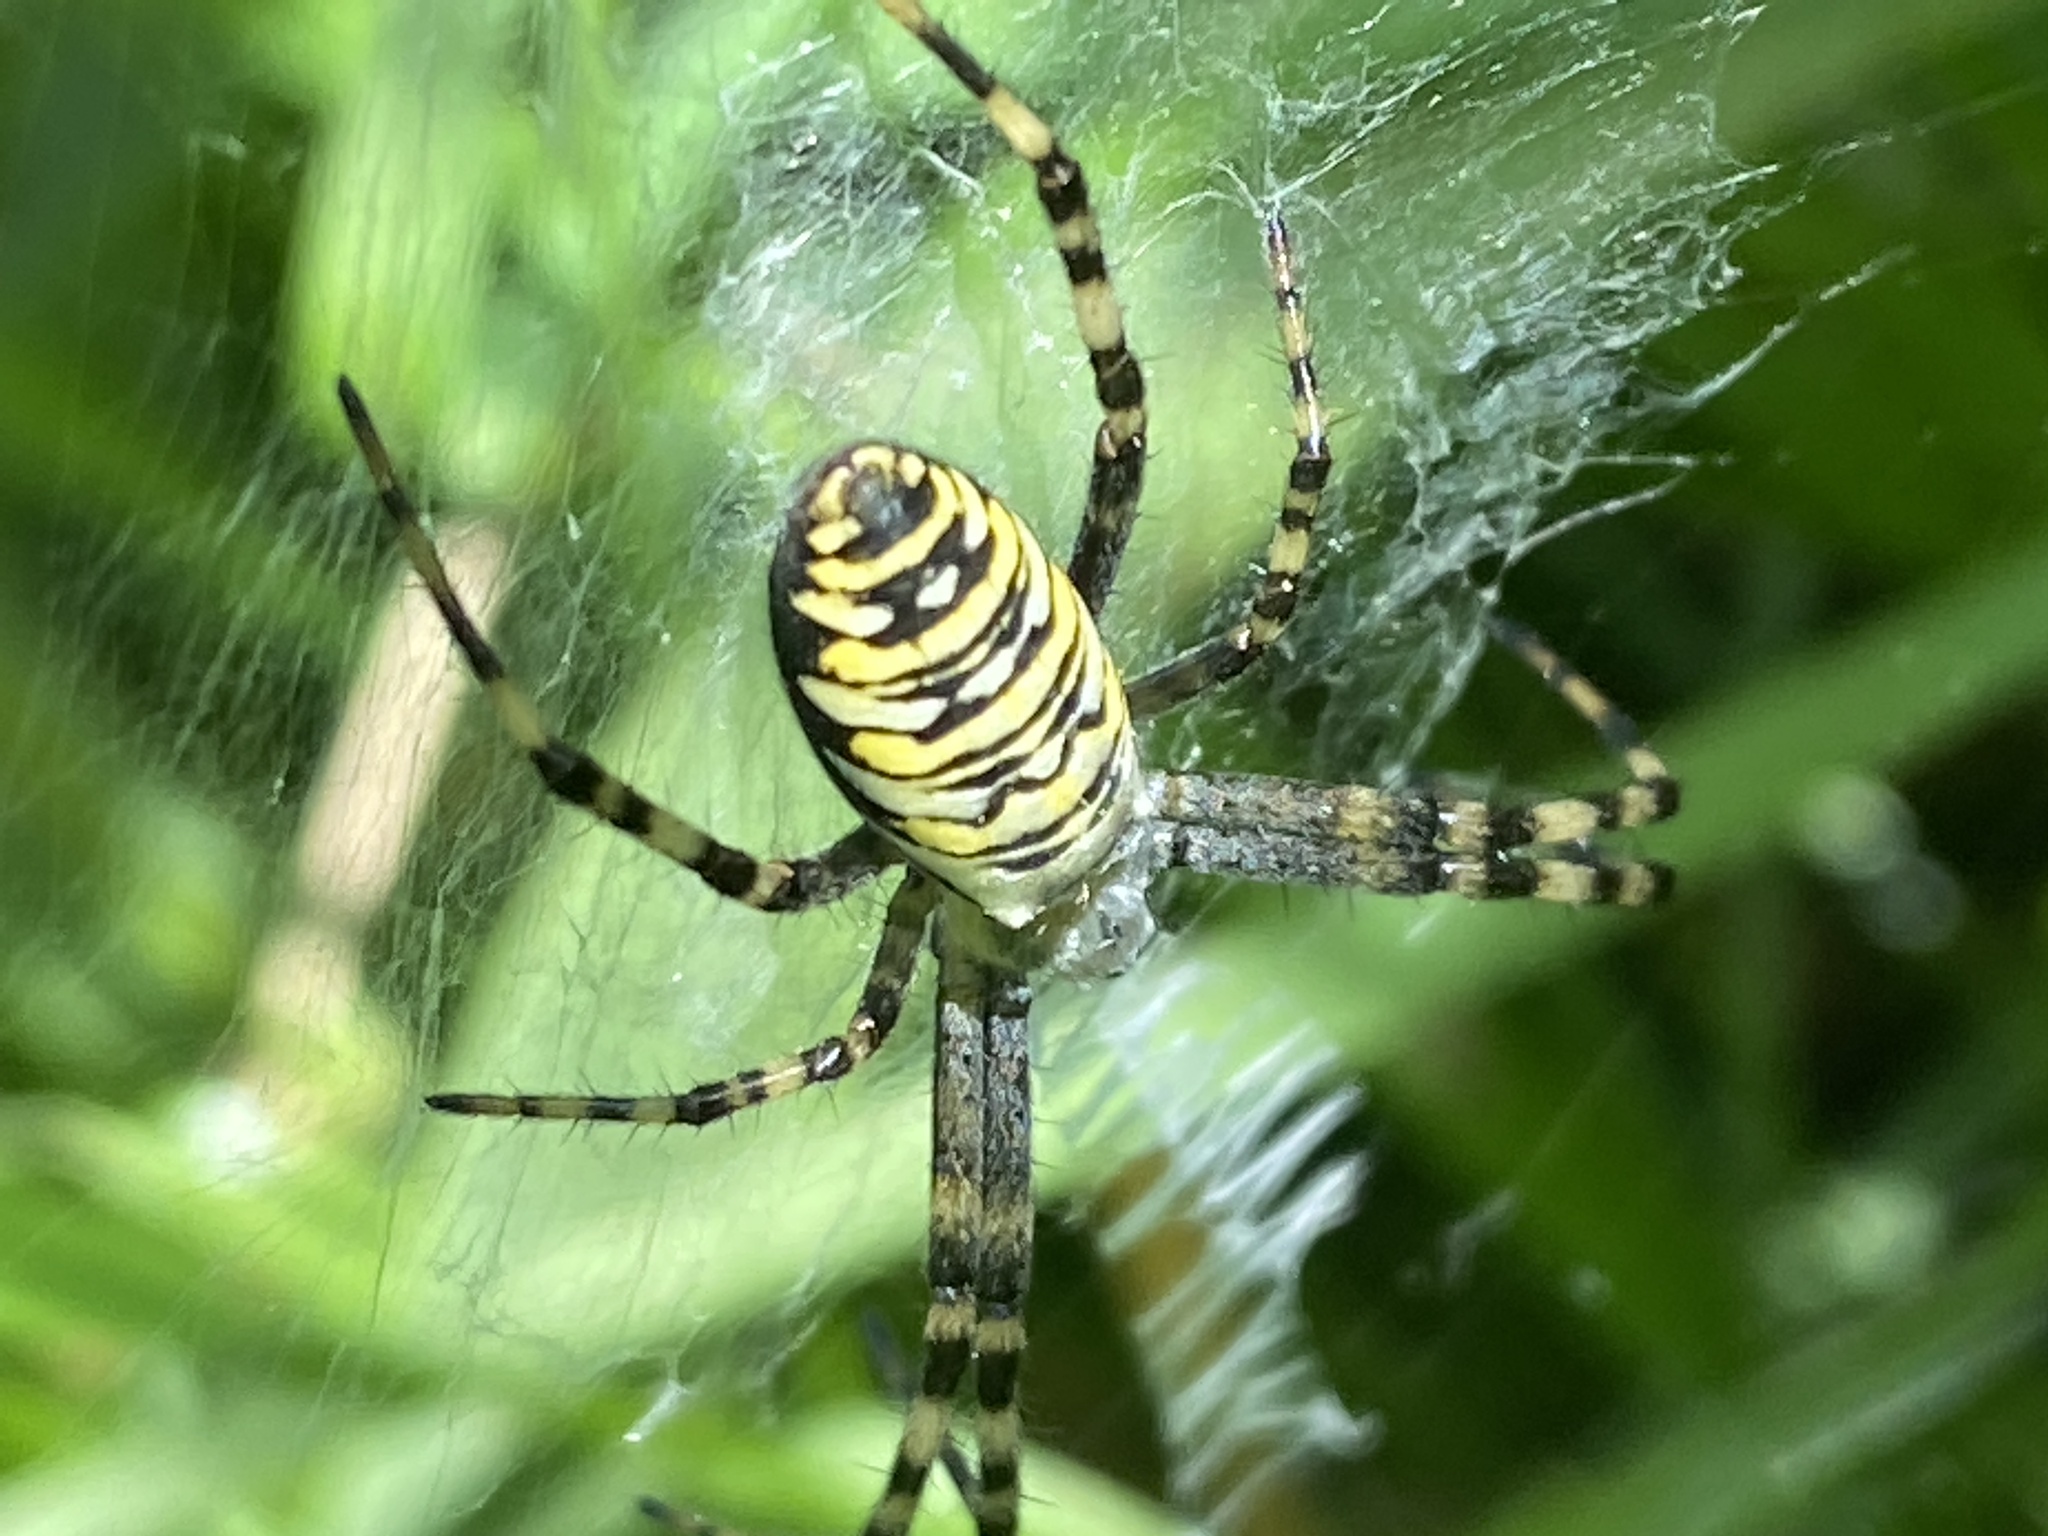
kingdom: Animalia
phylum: Arthropoda
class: Arachnida
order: Araneae
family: Araneidae
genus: Argiope
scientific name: Argiope bruennichi
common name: Wasp spider
